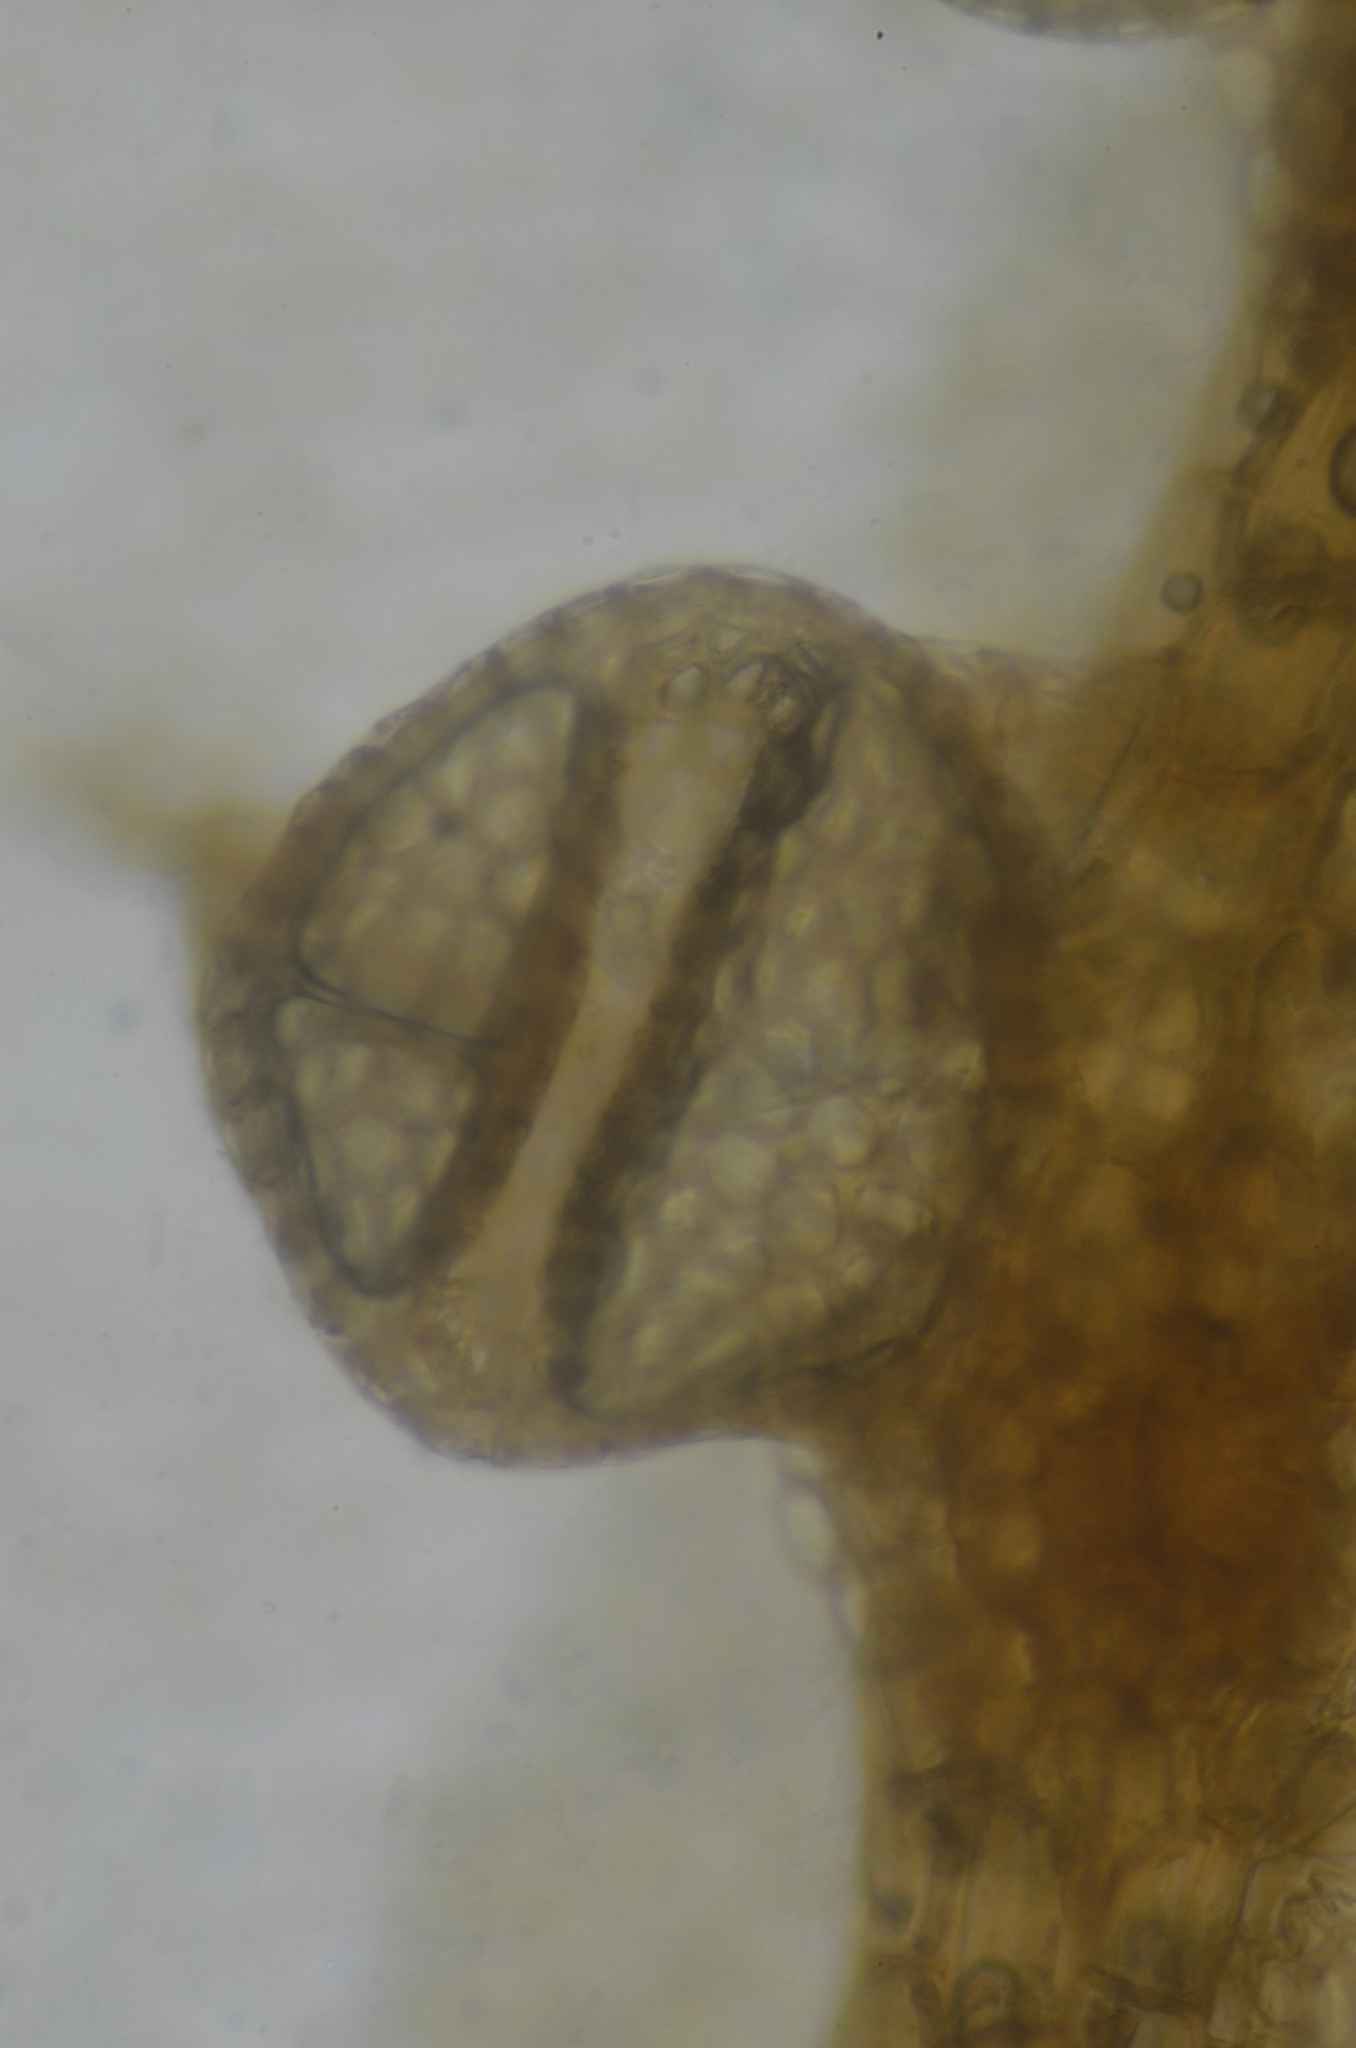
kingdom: Plantae
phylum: Marchantiophyta
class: Jungermanniopsida
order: Porellales
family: Lejeuneaceae
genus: Ceratolejeunea
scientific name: Ceratolejeunea spinosa
